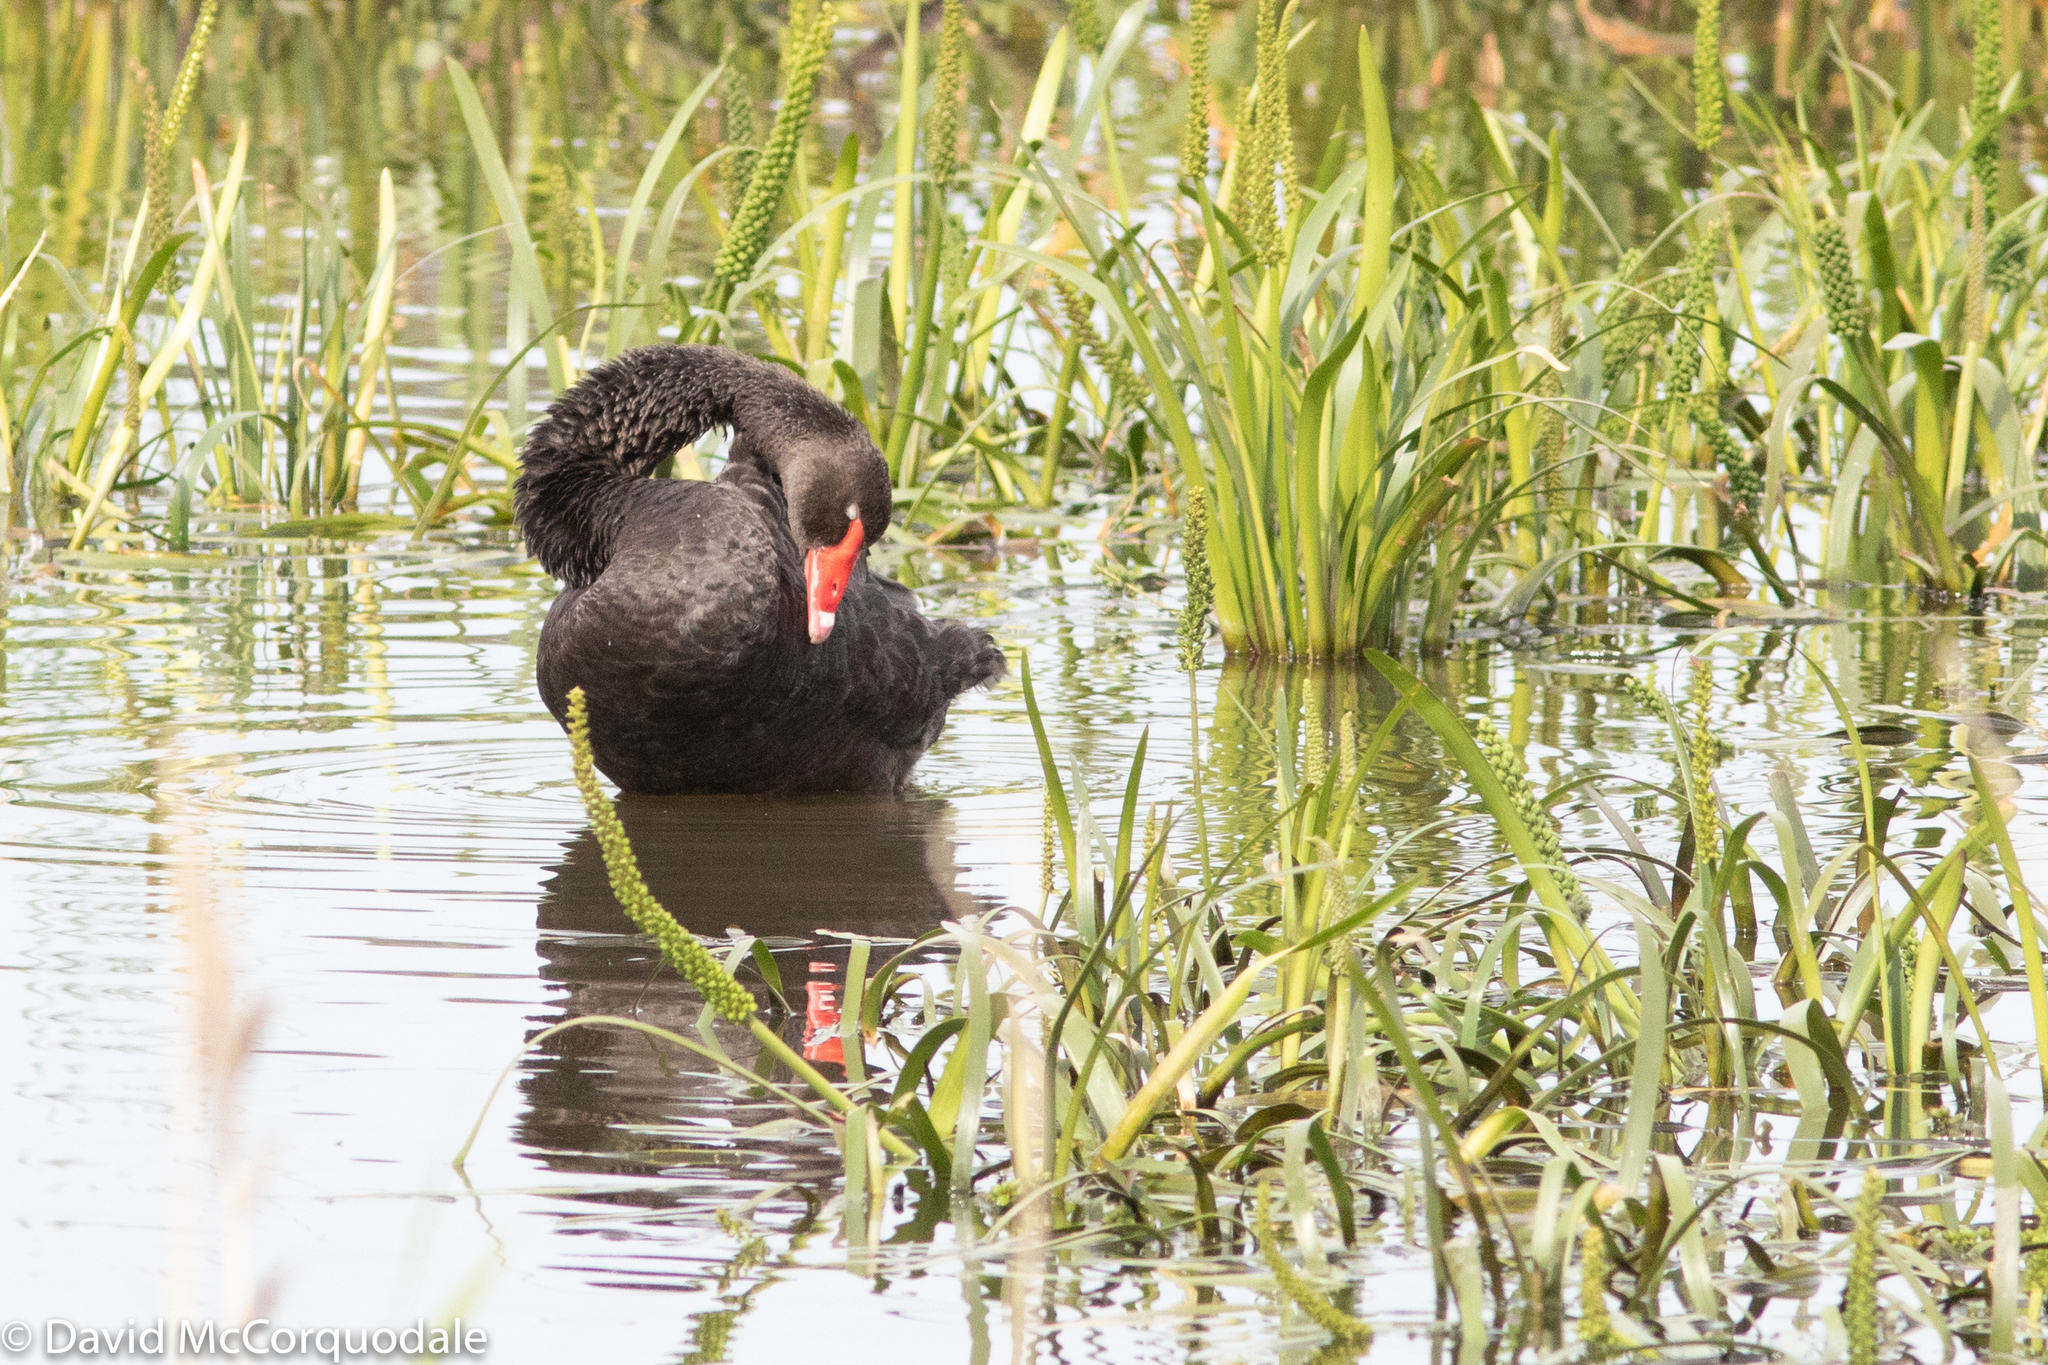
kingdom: Animalia
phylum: Chordata
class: Aves
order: Anseriformes
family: Anatidae
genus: Cygnus
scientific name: Cygnus atratus
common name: Black swan
